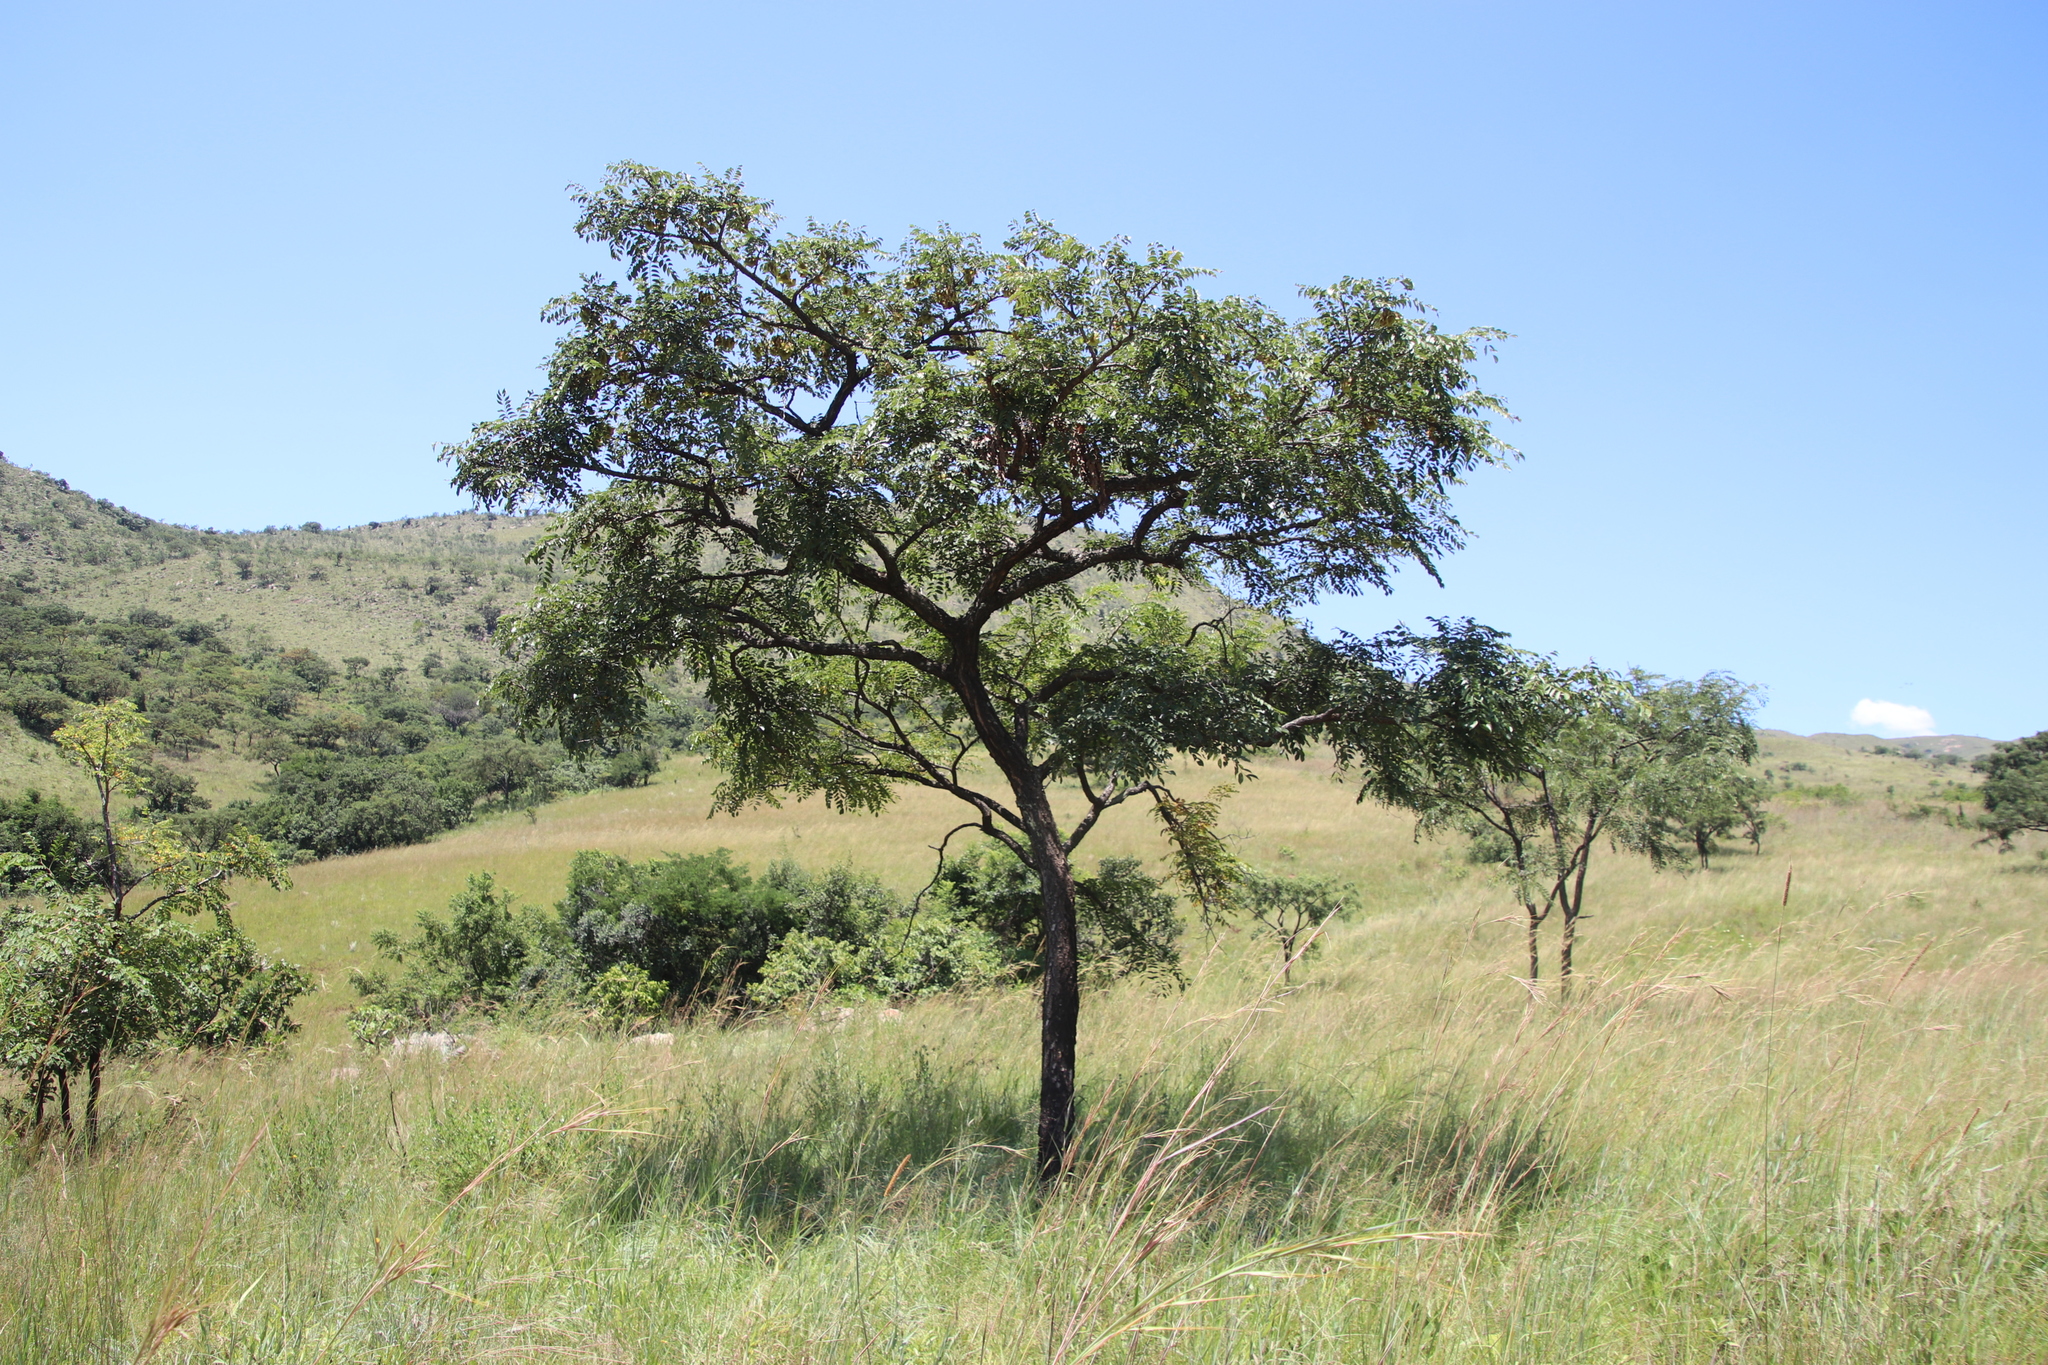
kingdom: Plantae
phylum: Tracheophyta
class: Magnoliopsida
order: Fabales
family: Fabaceae
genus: Pterocarpus
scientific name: Pterocarpus angolensis
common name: Bloodwood tree
